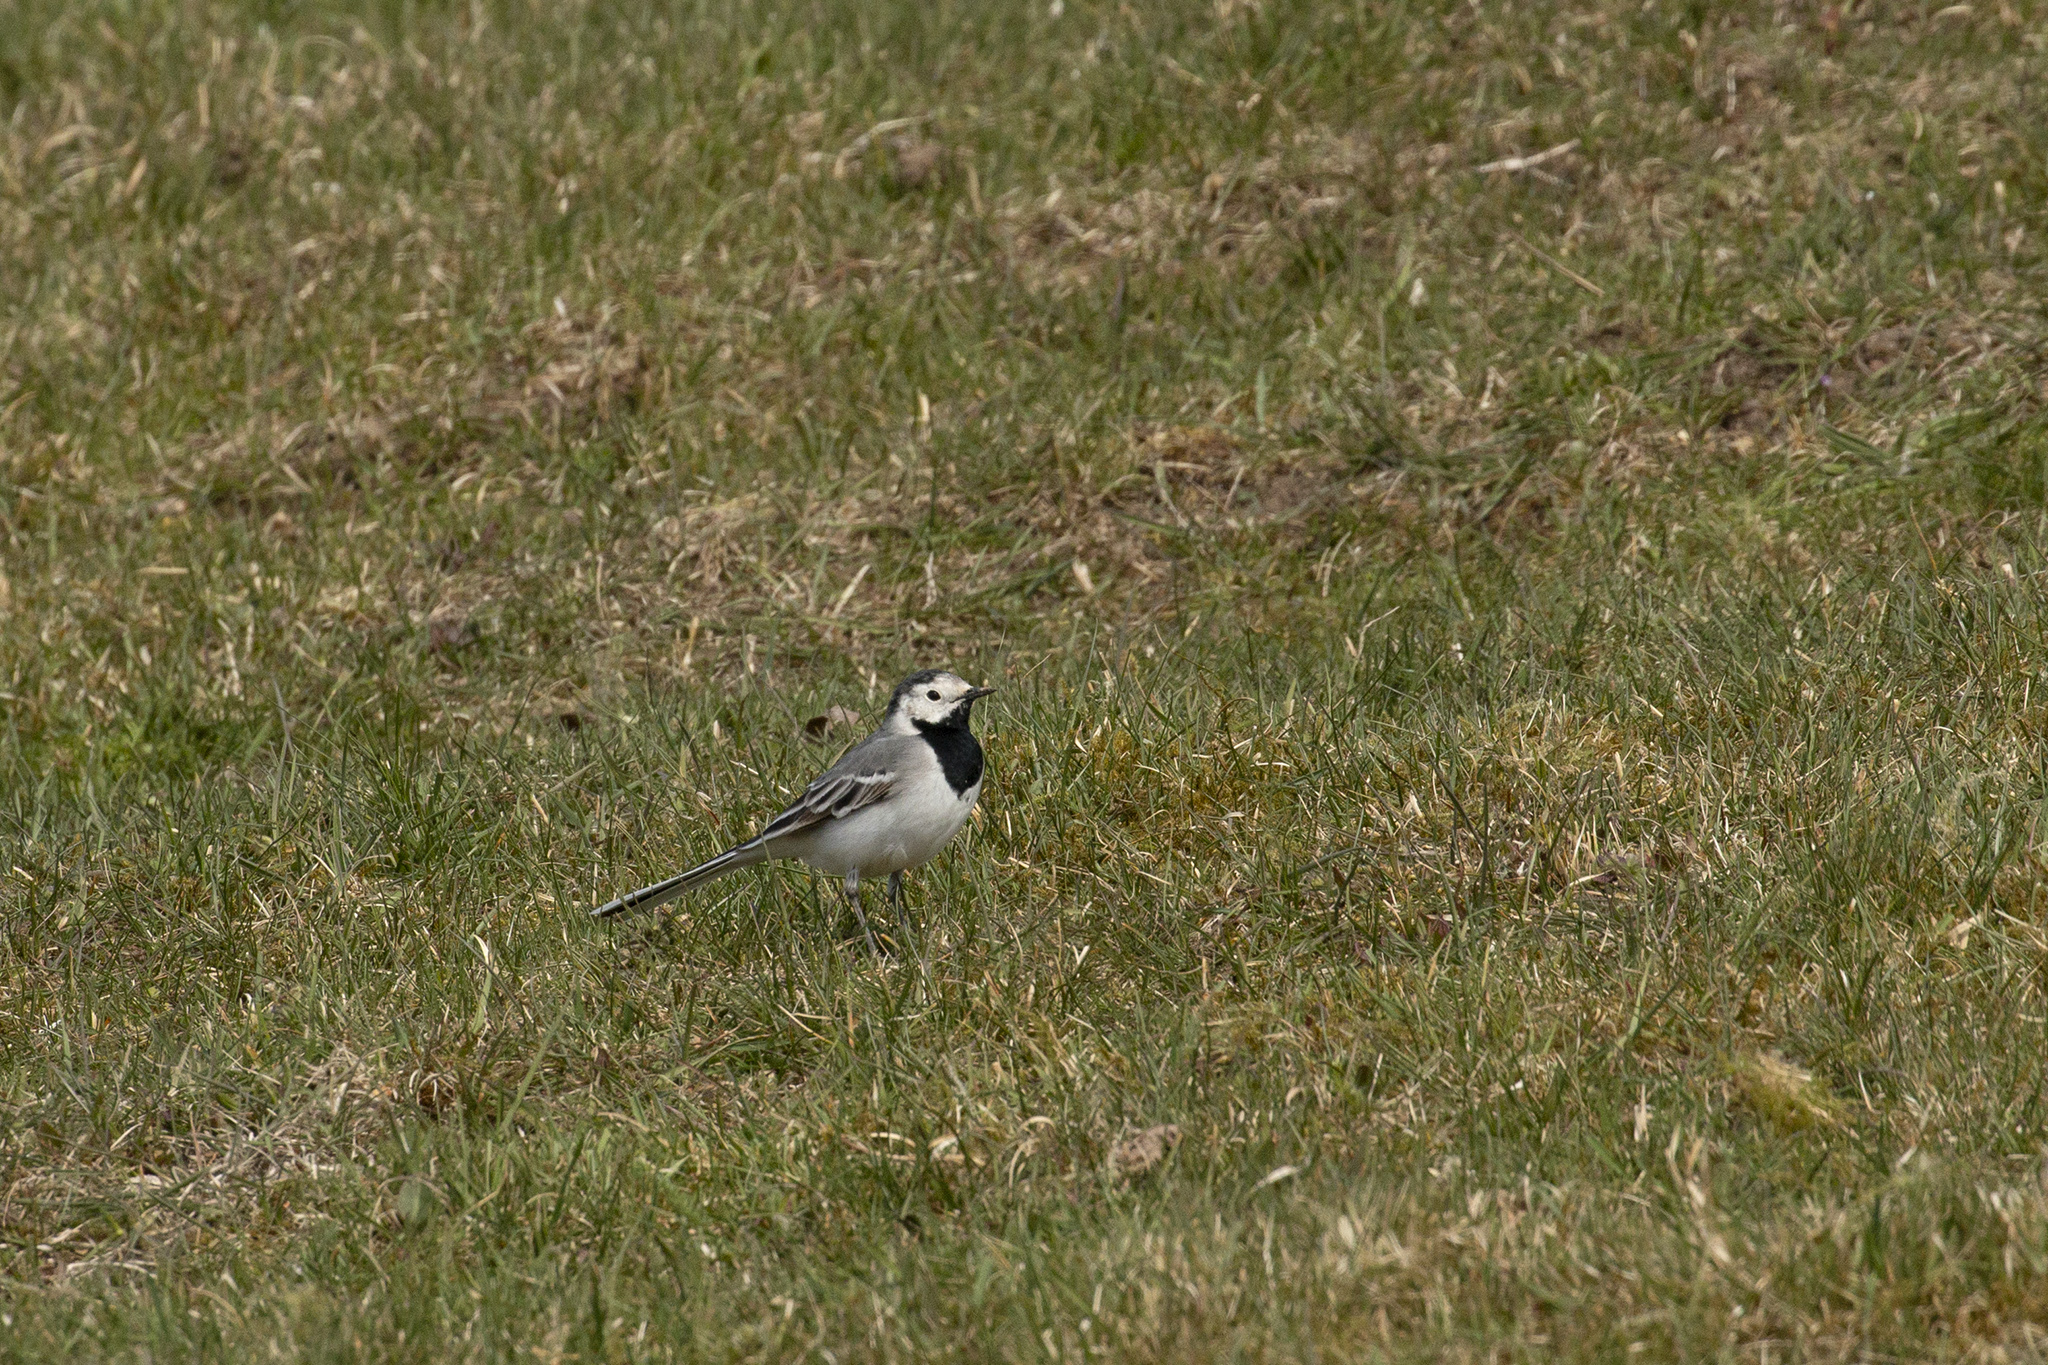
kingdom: Animalia
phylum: Chordata
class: Aves
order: Passeriformes
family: Motacillidae
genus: Motacilla
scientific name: Motacilla alba
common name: White wagtail
